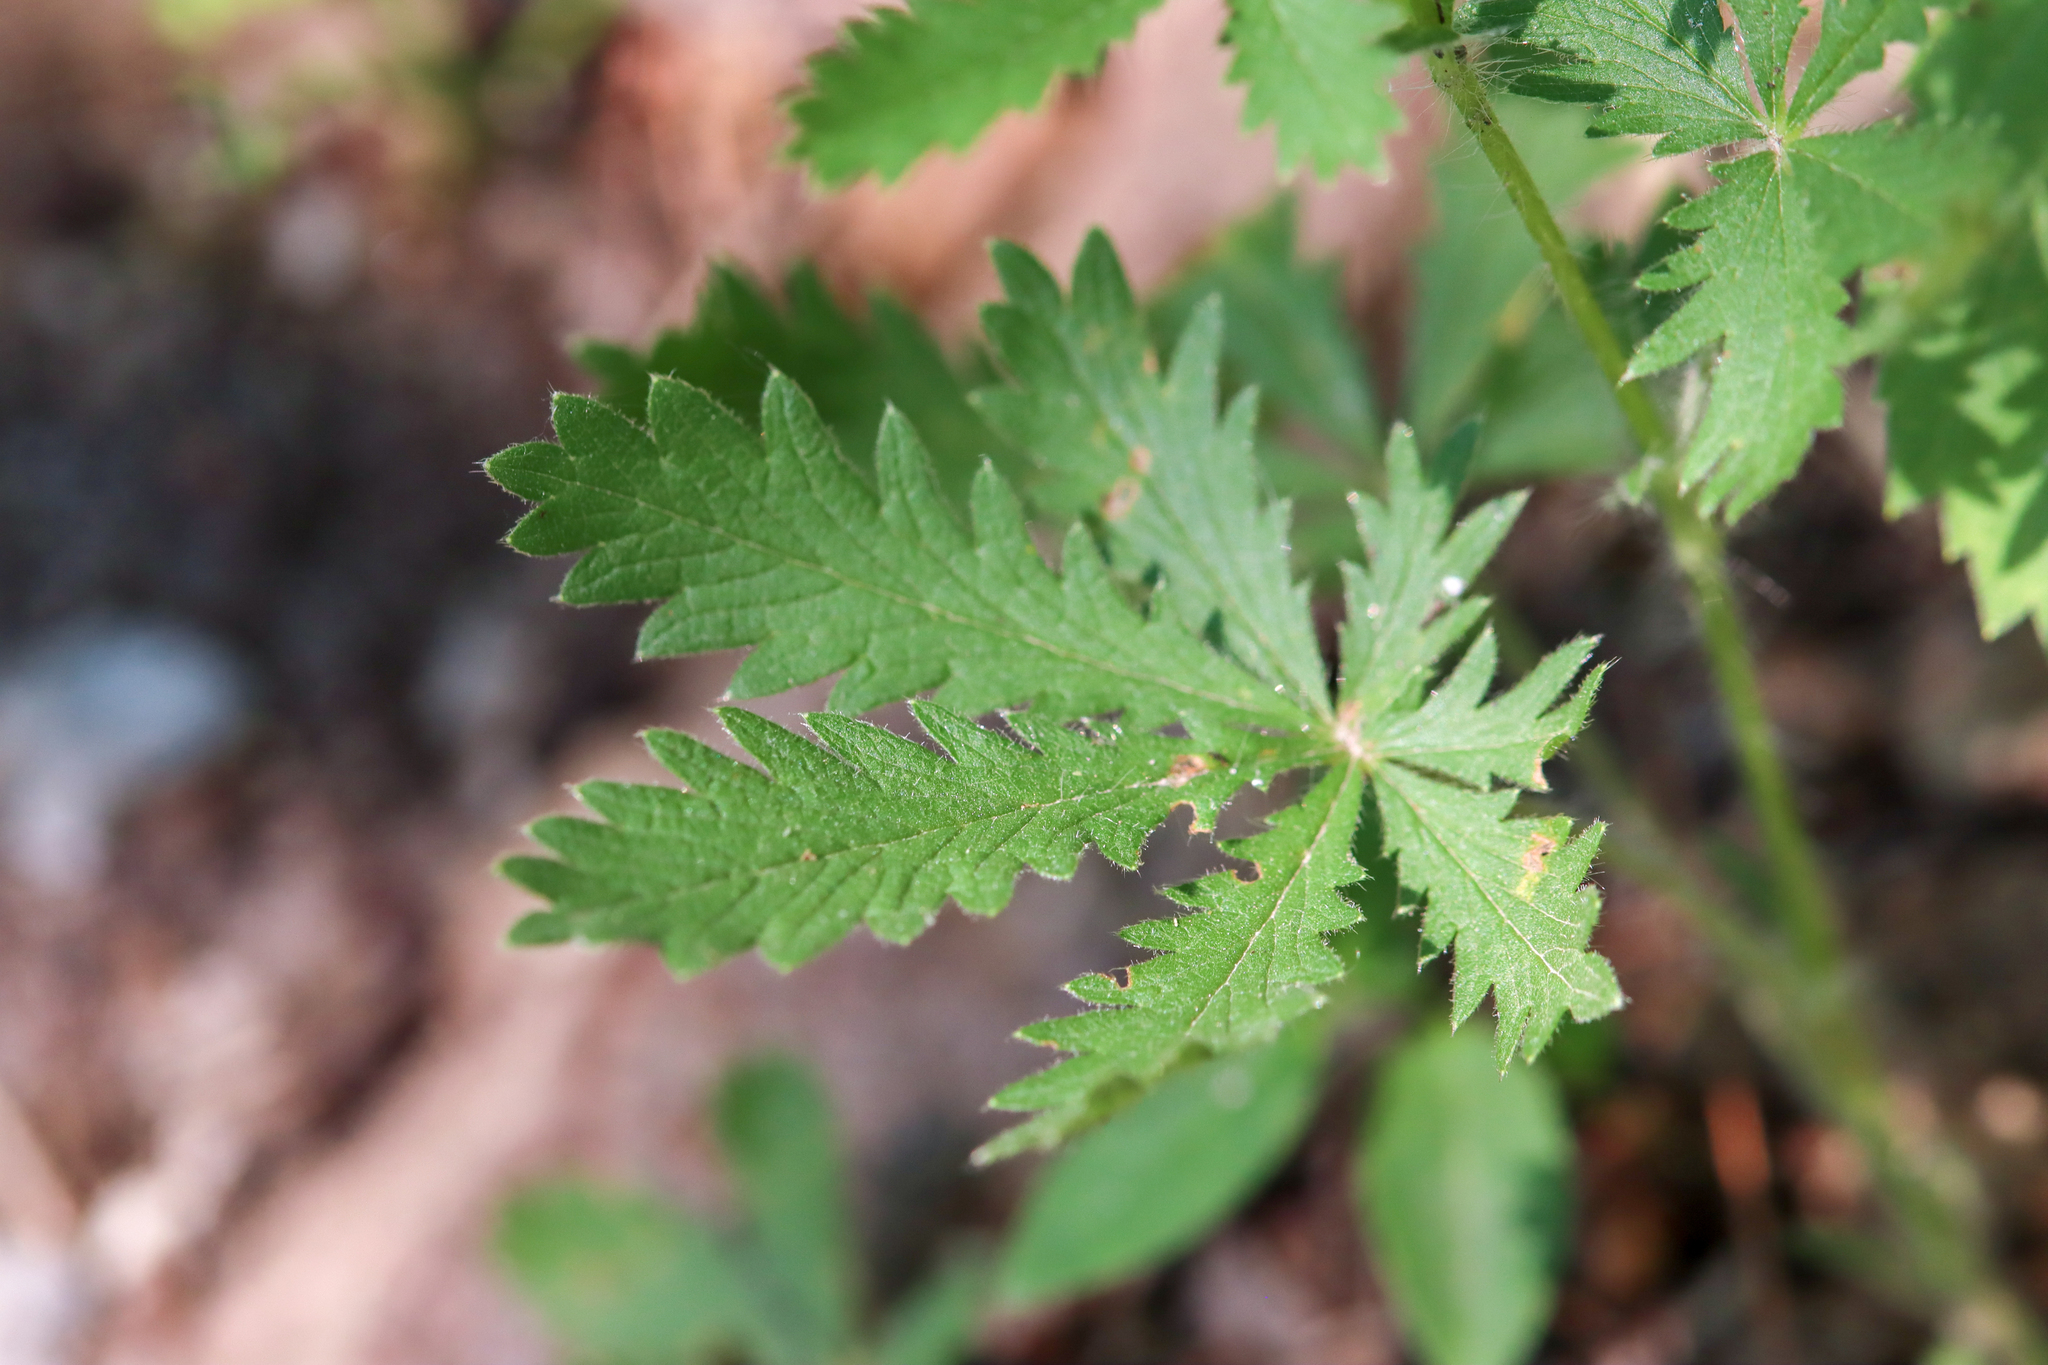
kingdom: Plantae
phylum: Tracheophyta
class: Magnoliopsida
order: Rosales
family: Rosaceae
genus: Potentilla
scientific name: Potentilla recta
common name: Sulphur cinquefoil
